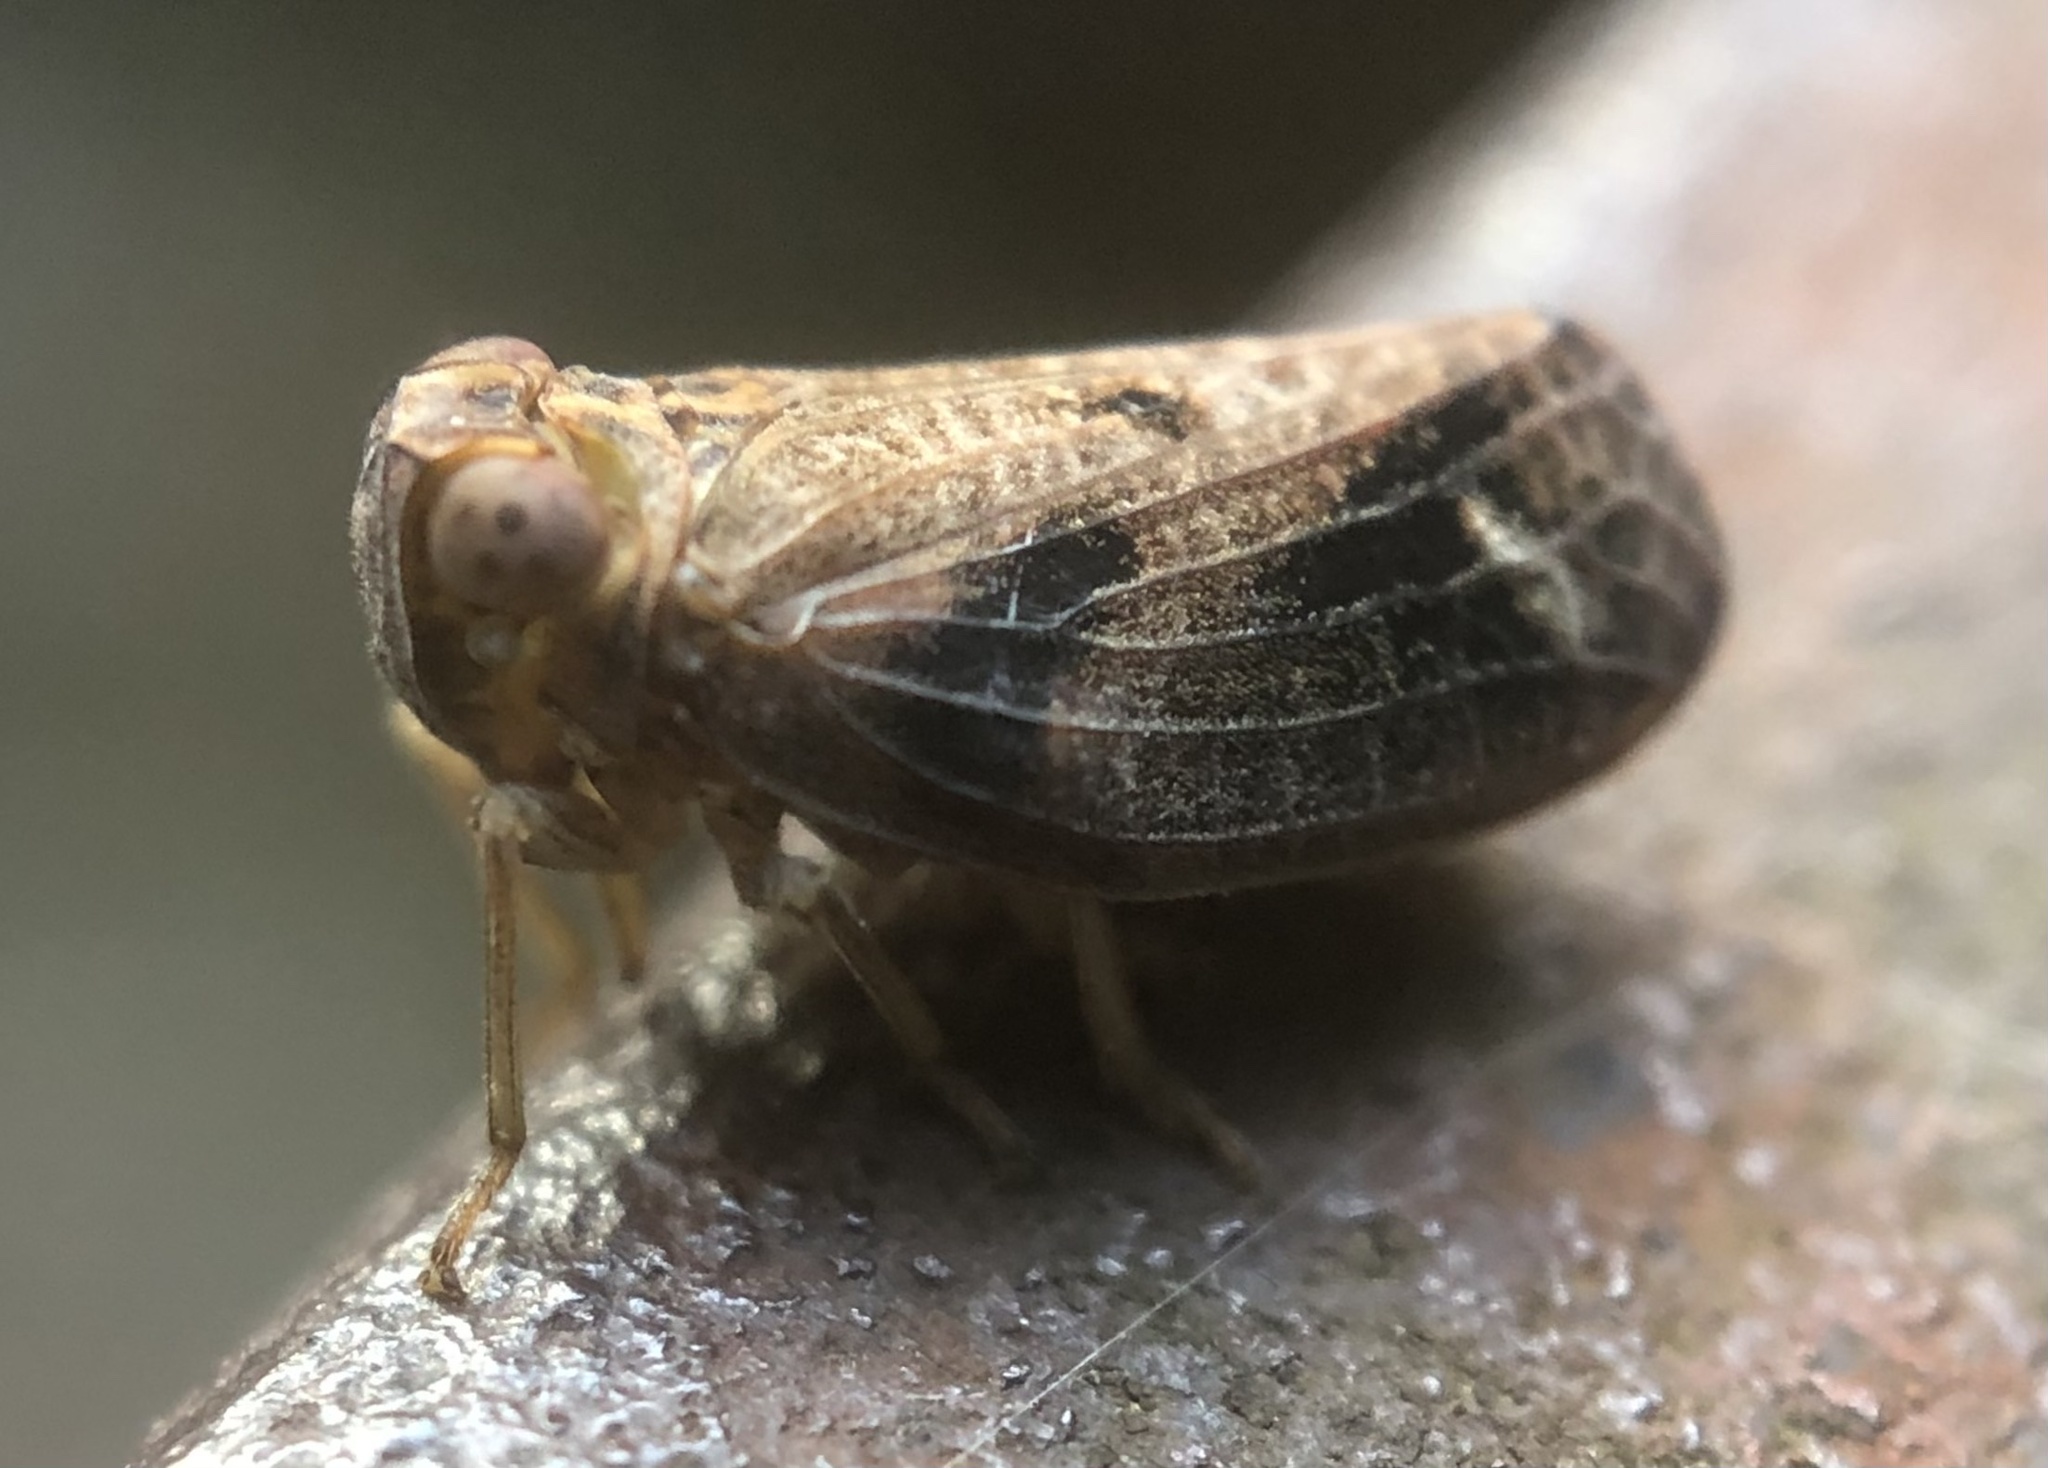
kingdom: Animalia
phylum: Arthropoda
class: Insecta
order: Hemiptera
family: Issidae
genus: Thionia
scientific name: Thionia bullata
